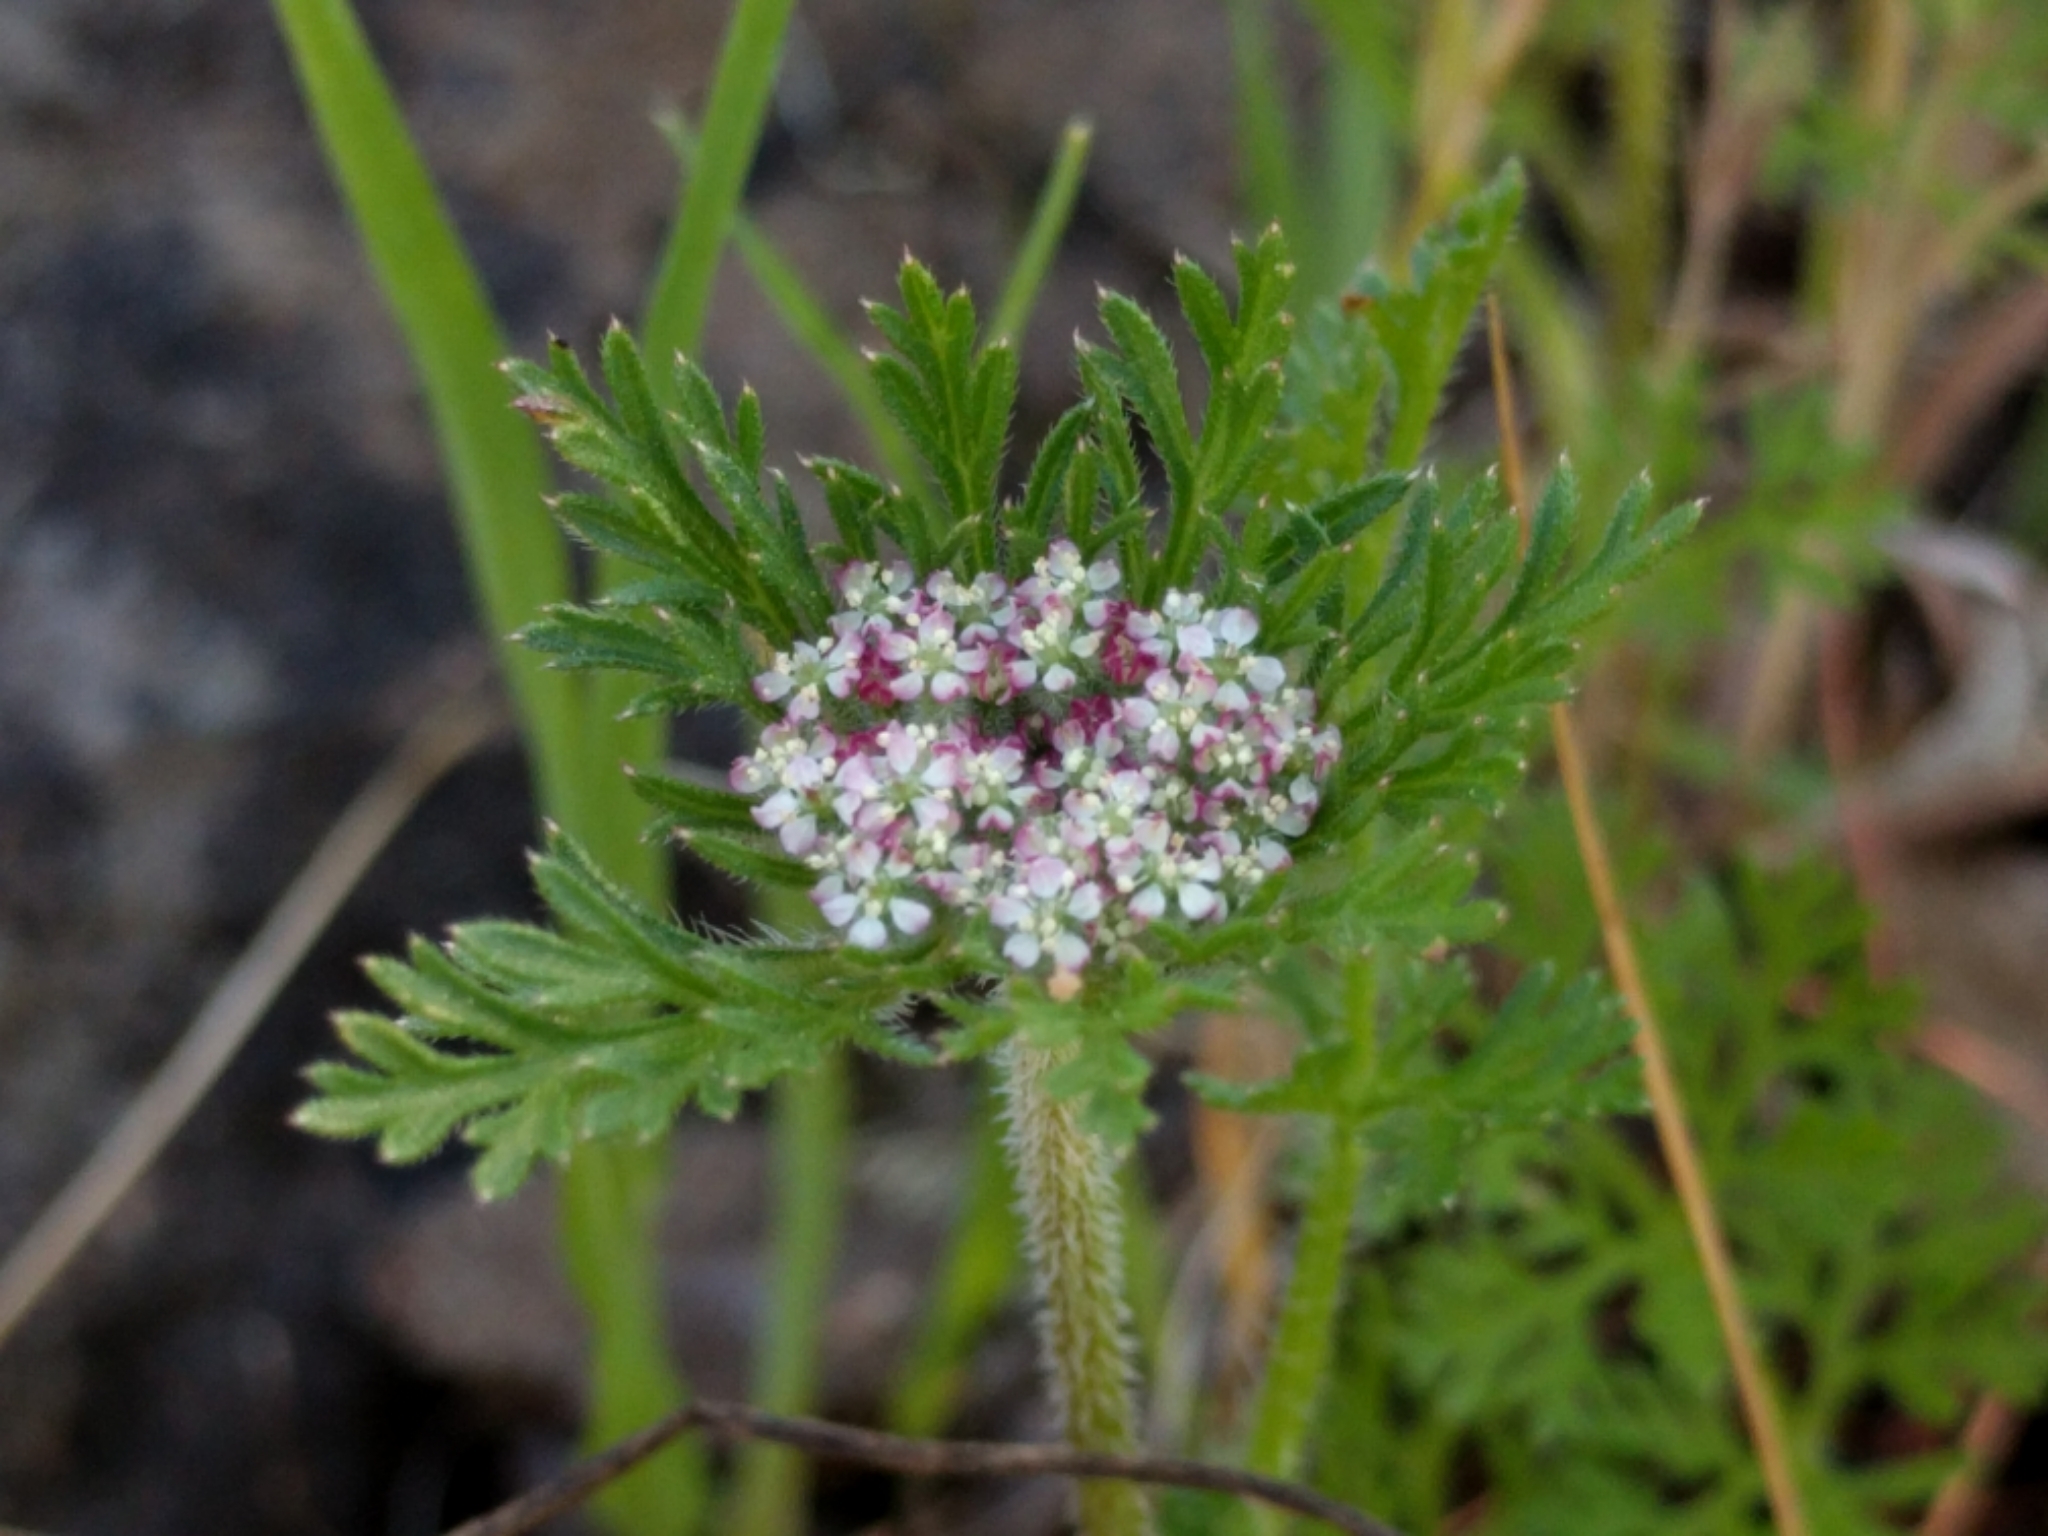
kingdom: Plantae
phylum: Tracheophyta
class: Magnoliopsida
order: Apiales
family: Apiaceae
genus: Daucus
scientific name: Daucus pusillus
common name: Southwest wild carrot
